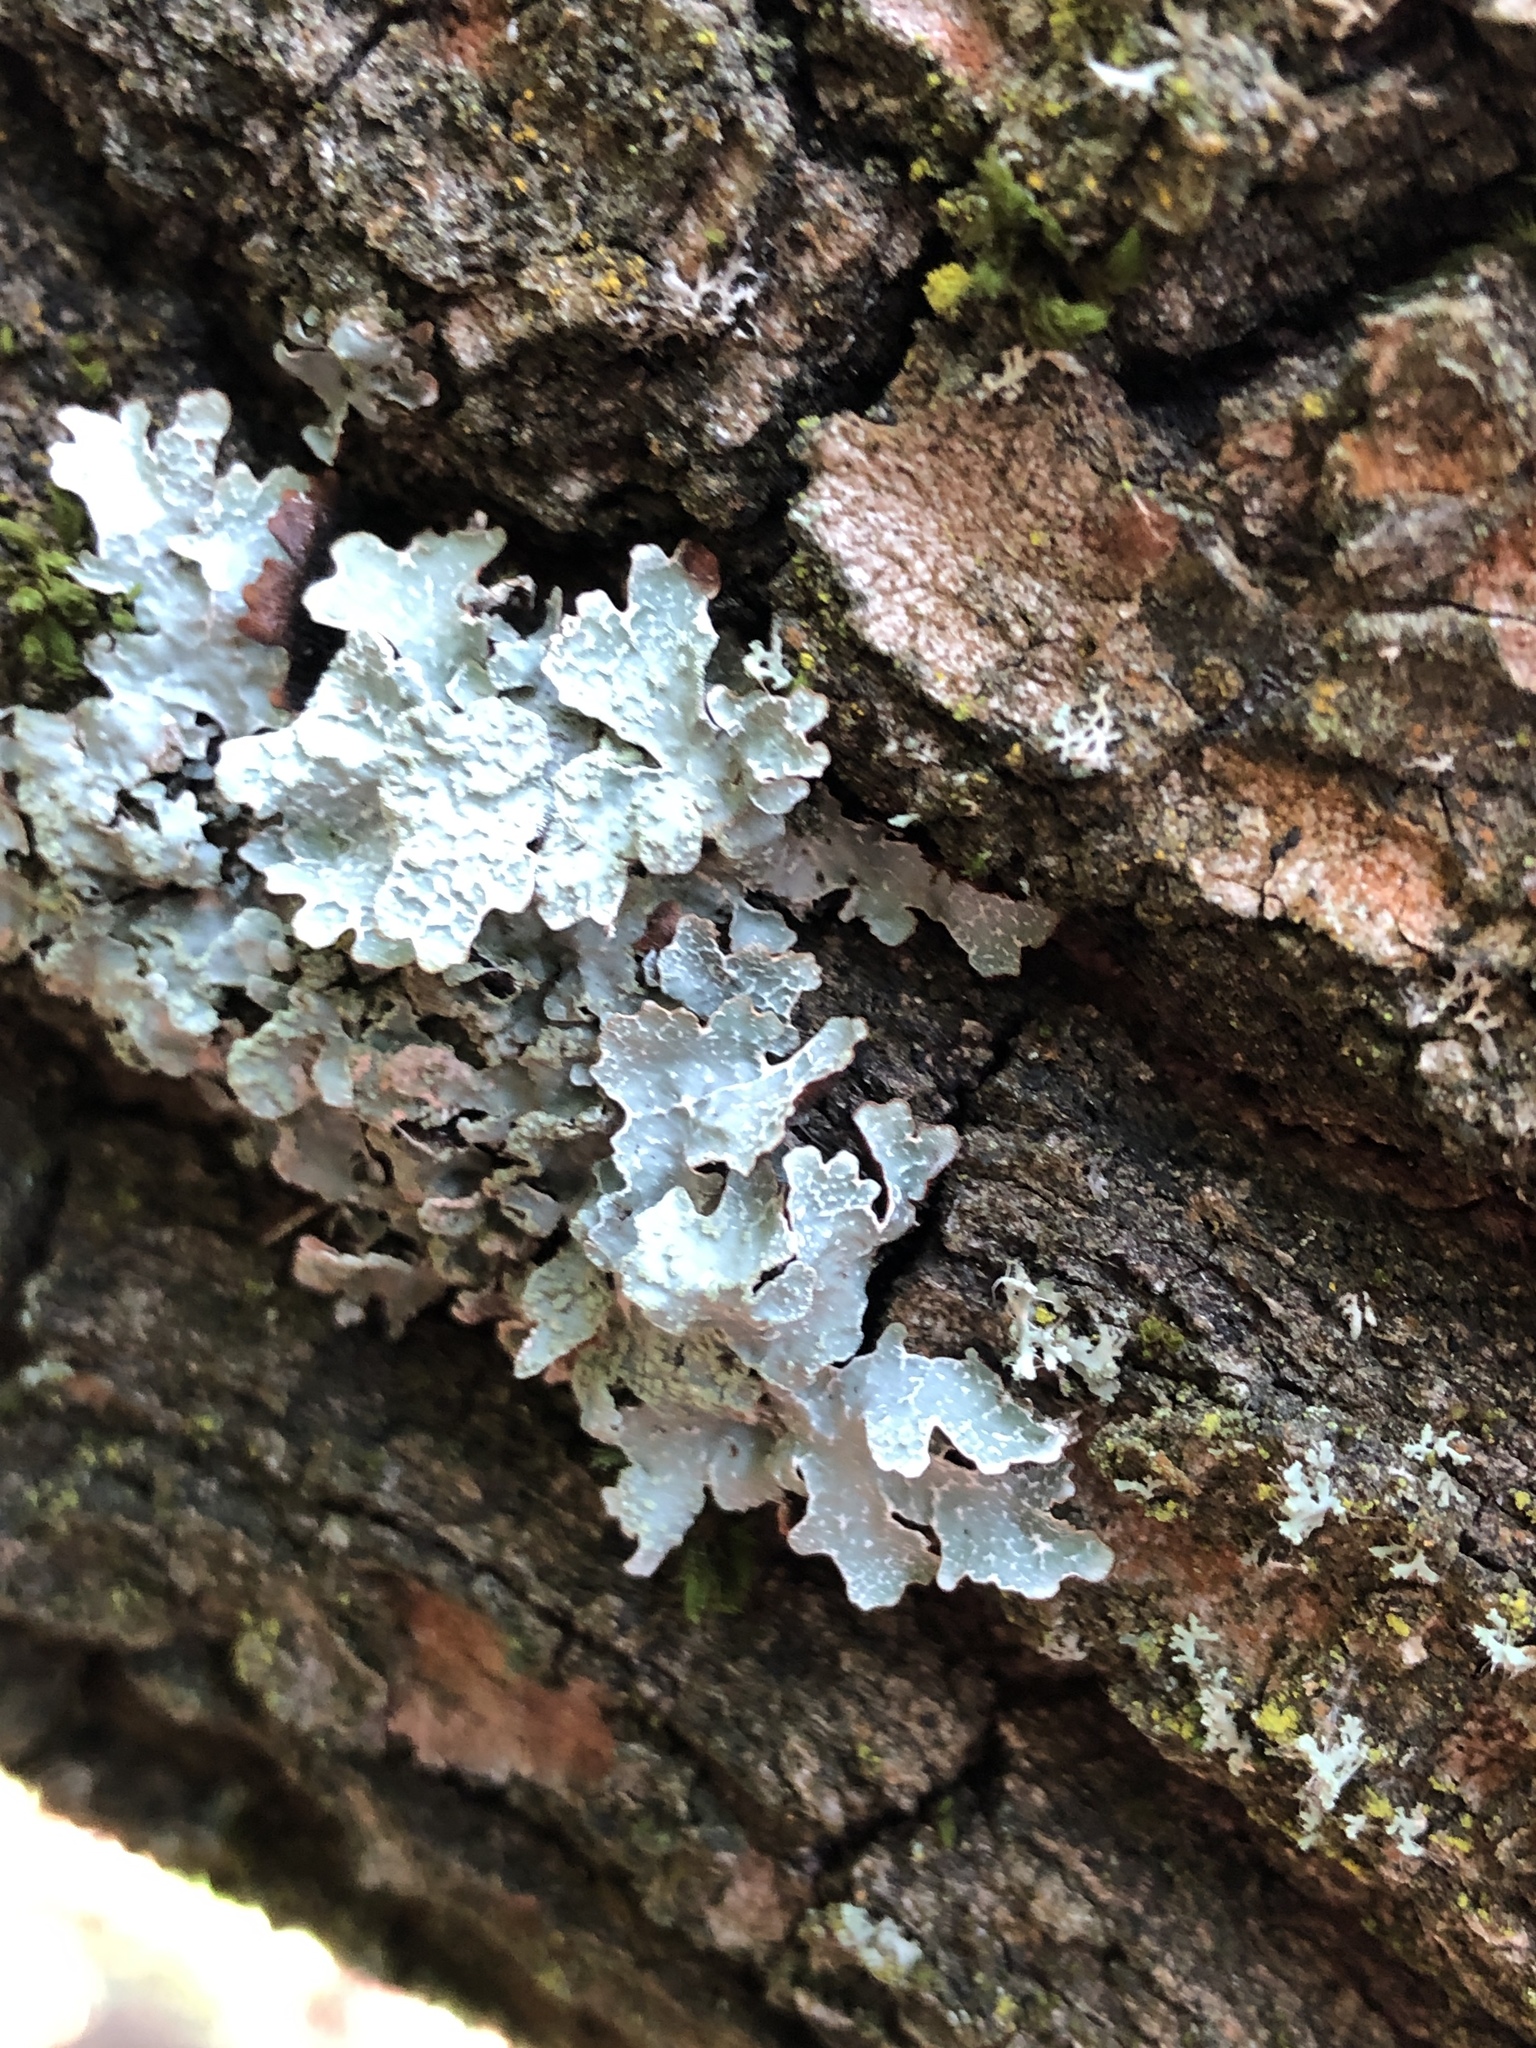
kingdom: Fungi
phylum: Ascomycota
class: Lecanoromycetes
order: Lecanorales
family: Parmeliaceae
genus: Parmelia
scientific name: Parmelia sulcata
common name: Netted shield lichen
